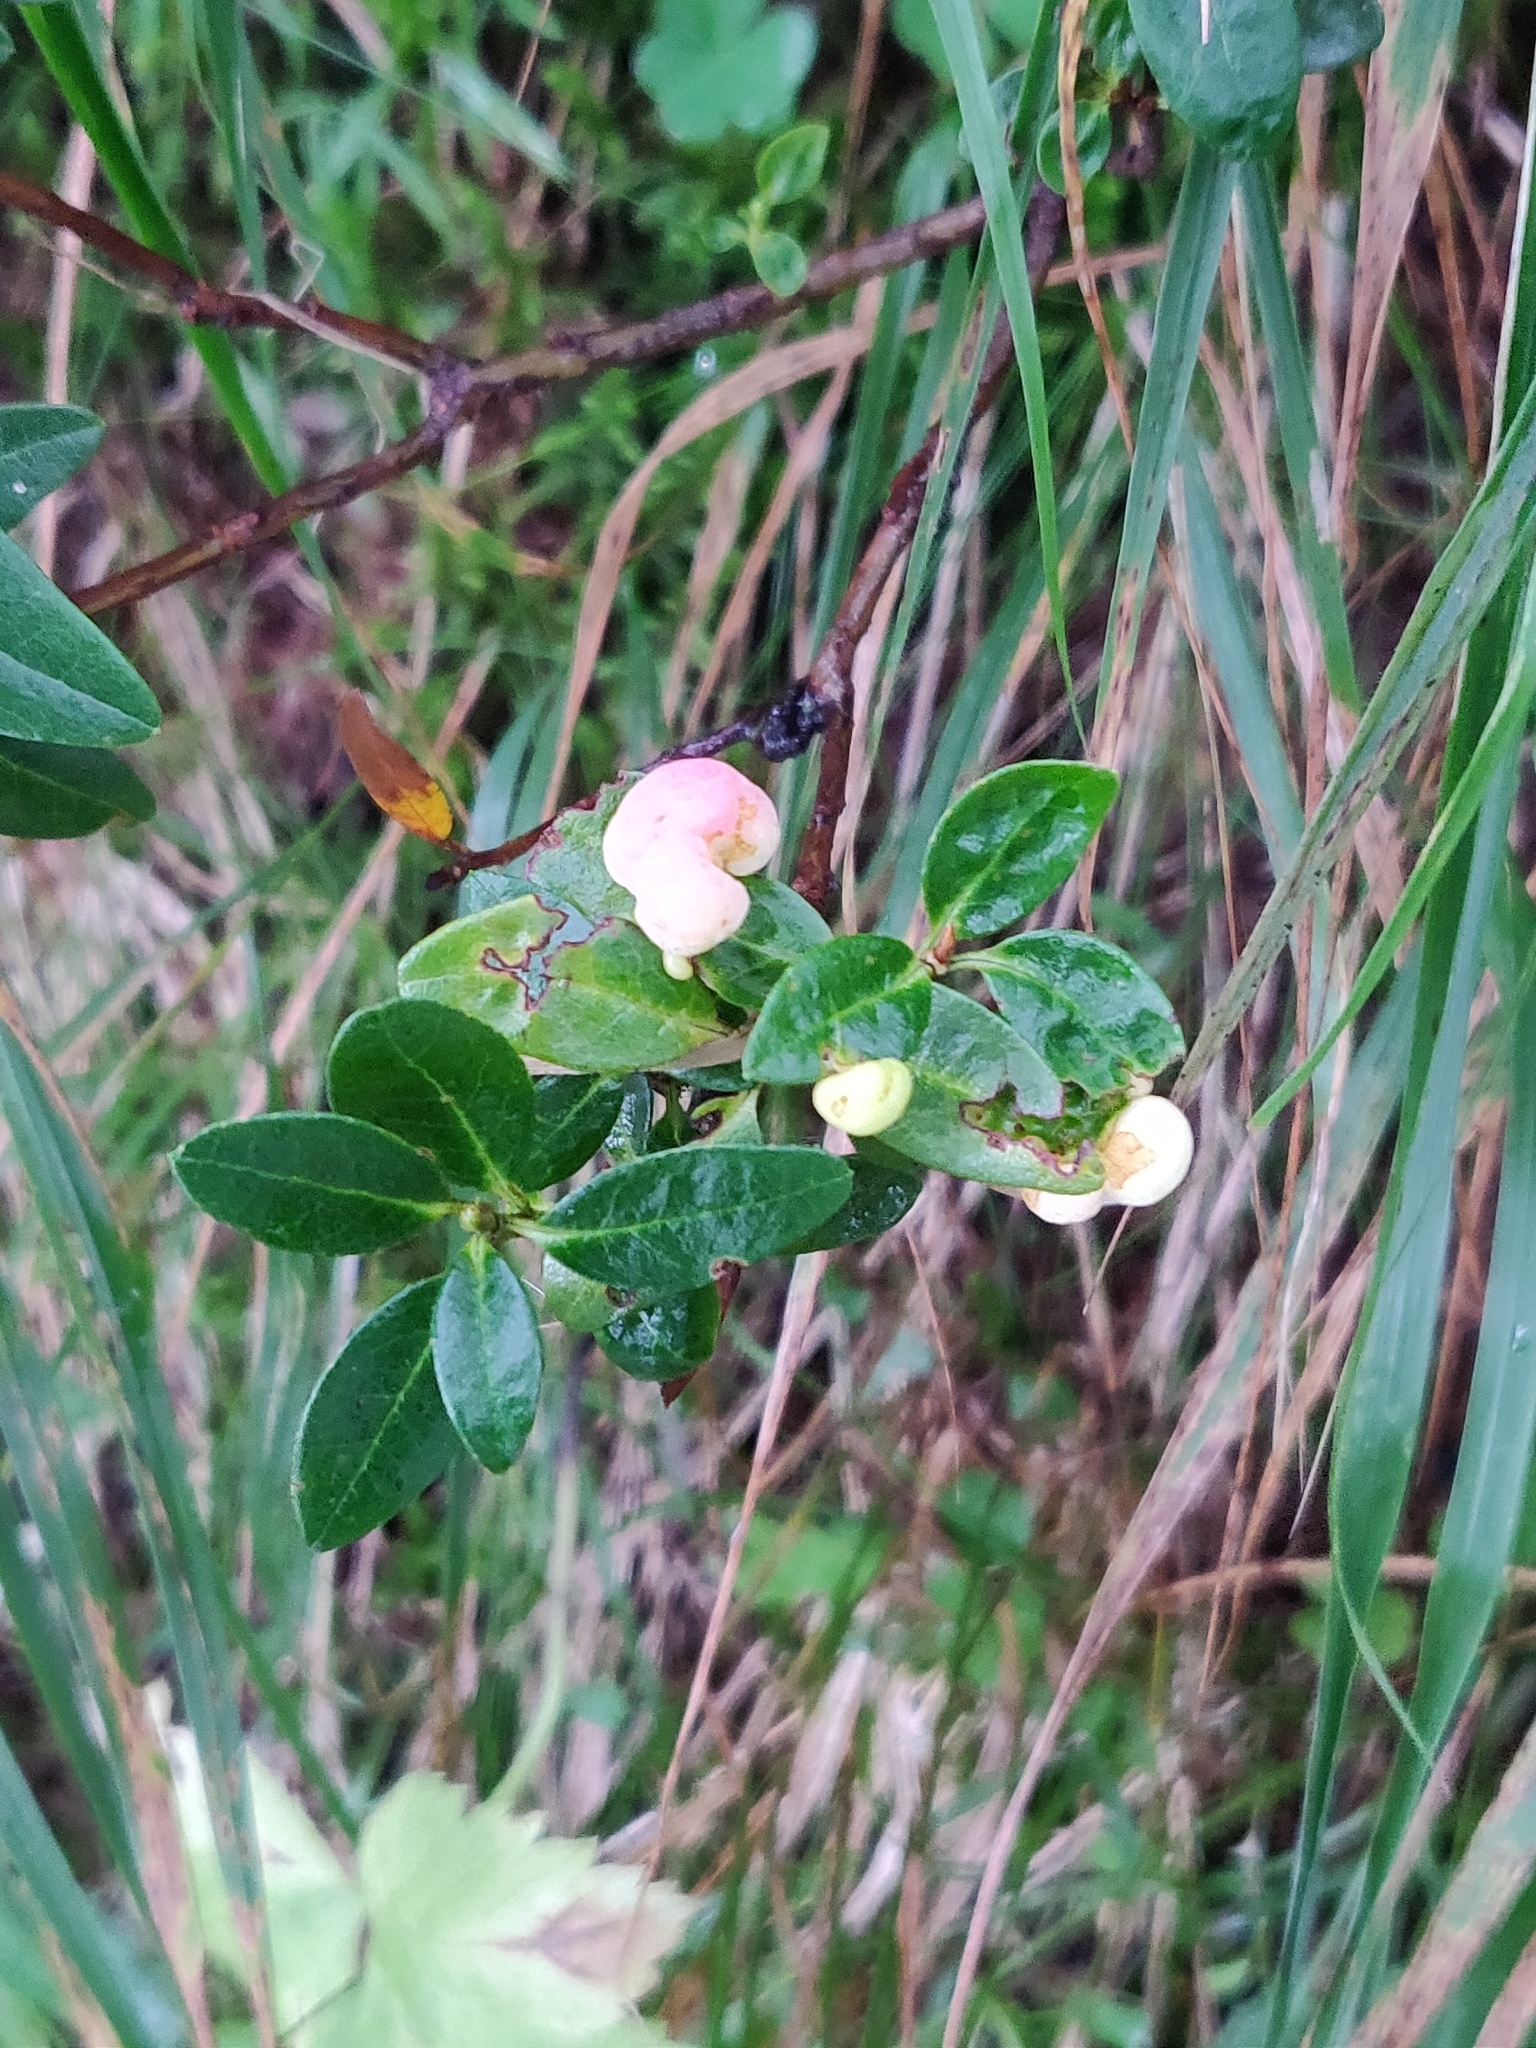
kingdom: Fungi
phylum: Basidiomycota
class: Exobasidiomycetes
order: Exobasidiales
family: Exobasidiaceae
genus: Exobasidium
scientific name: Exobasidium rhododendri
